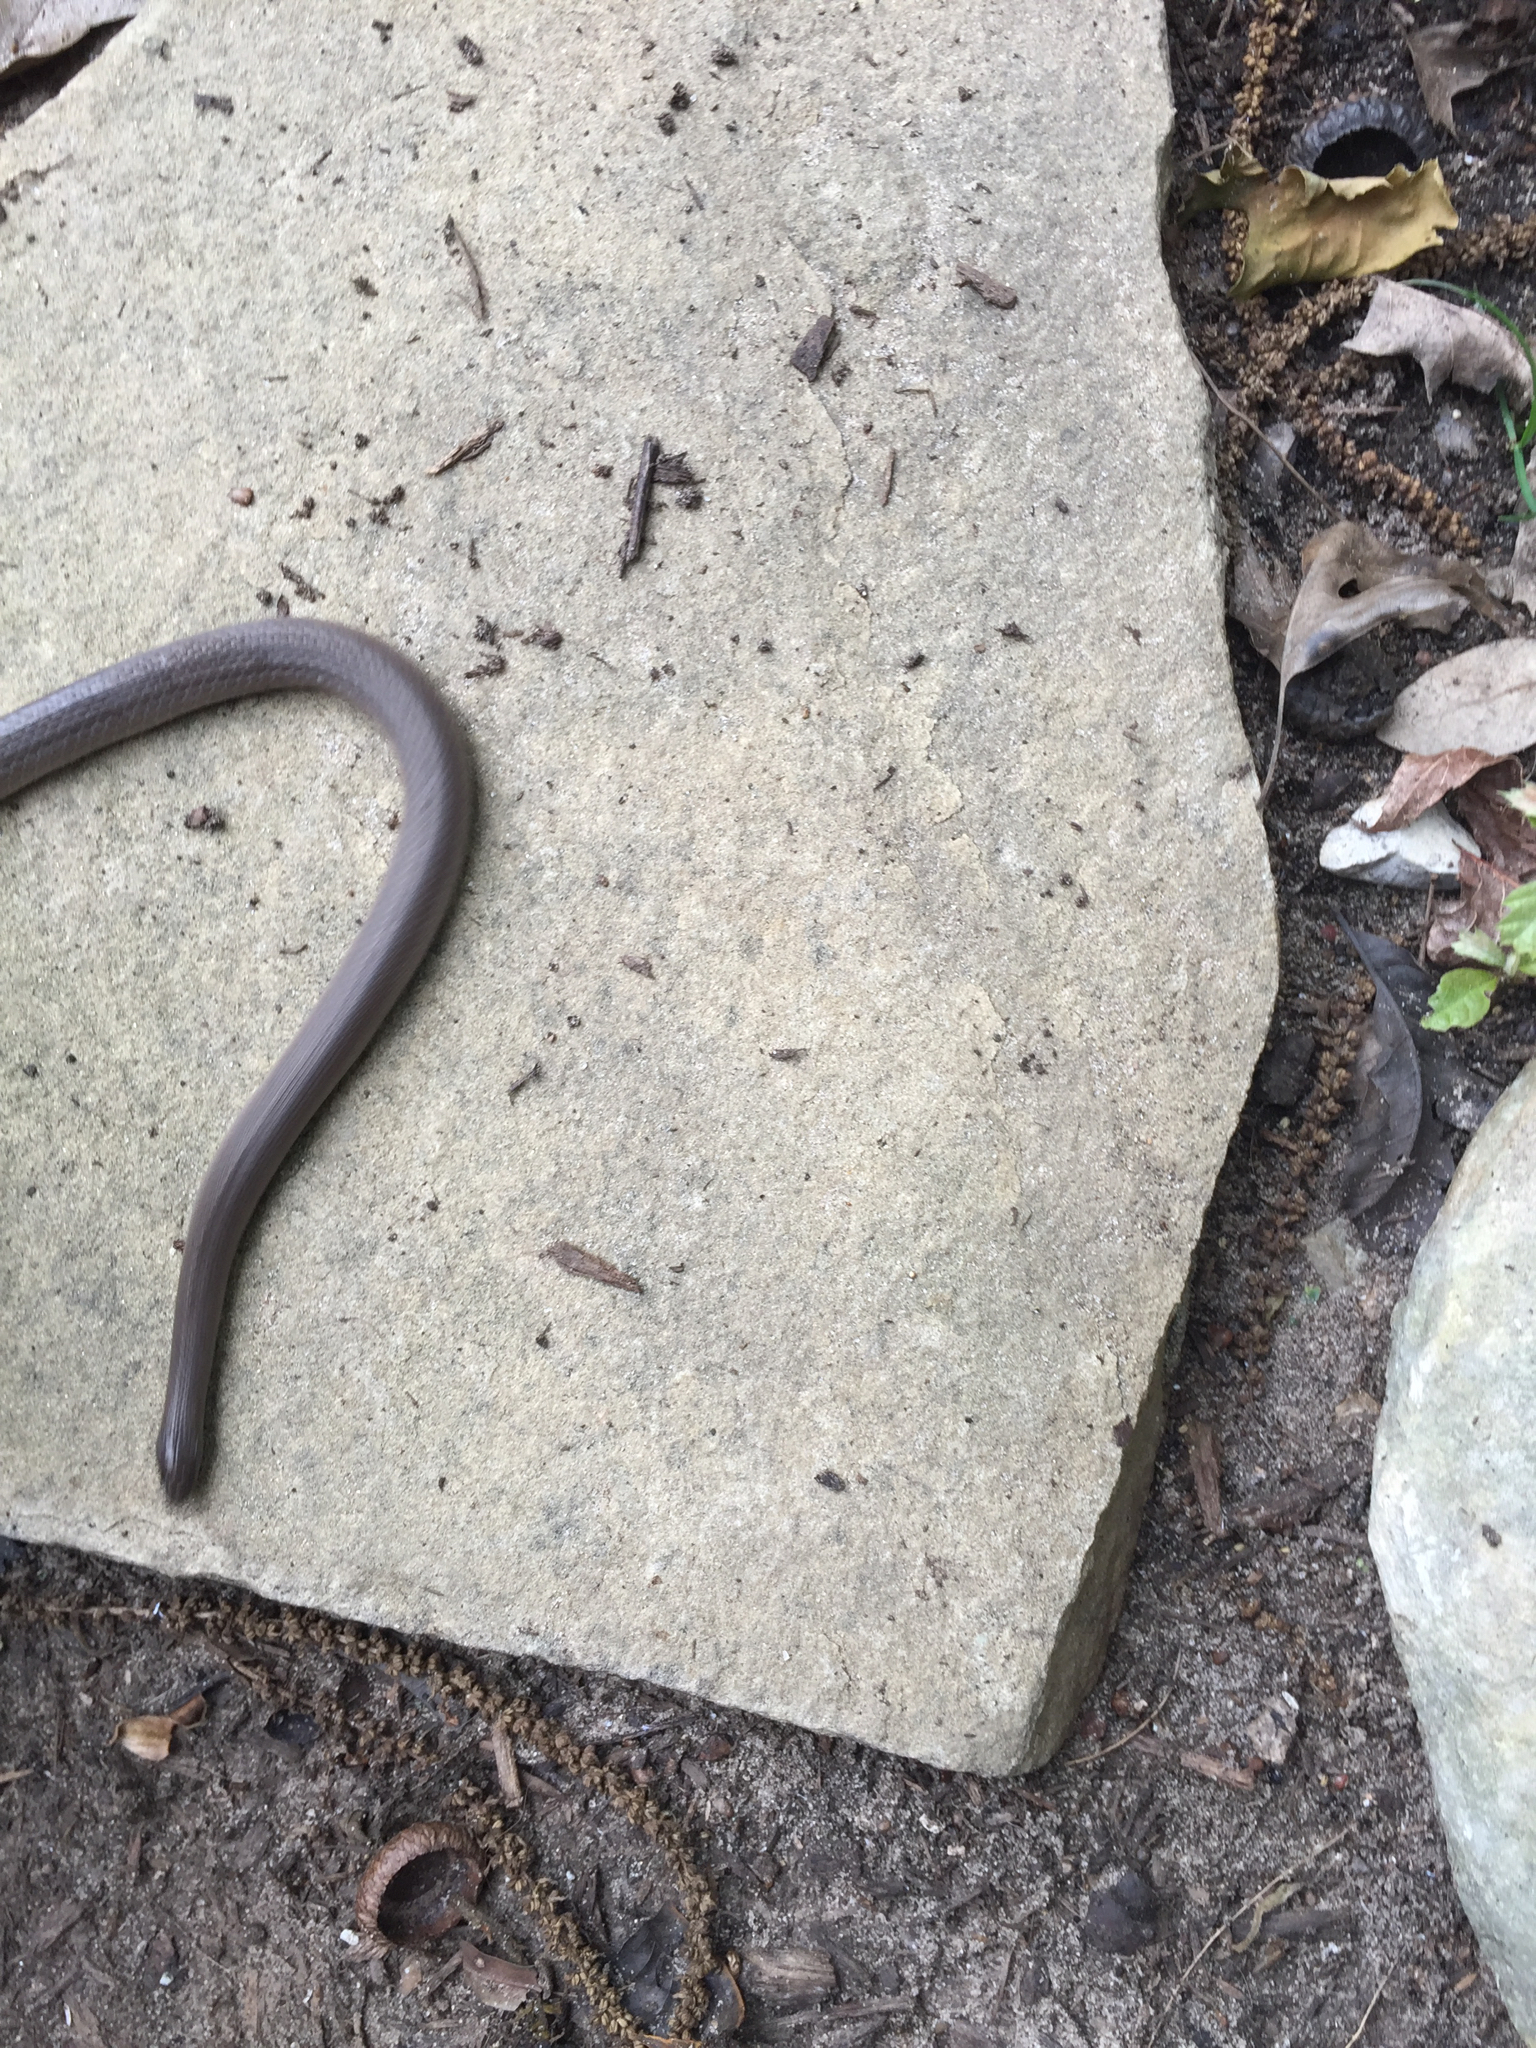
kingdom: Animalia
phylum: Chordata
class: Squamata
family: Colubridae
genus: Haldea
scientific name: Haldea striatula
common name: Rough earth snake
